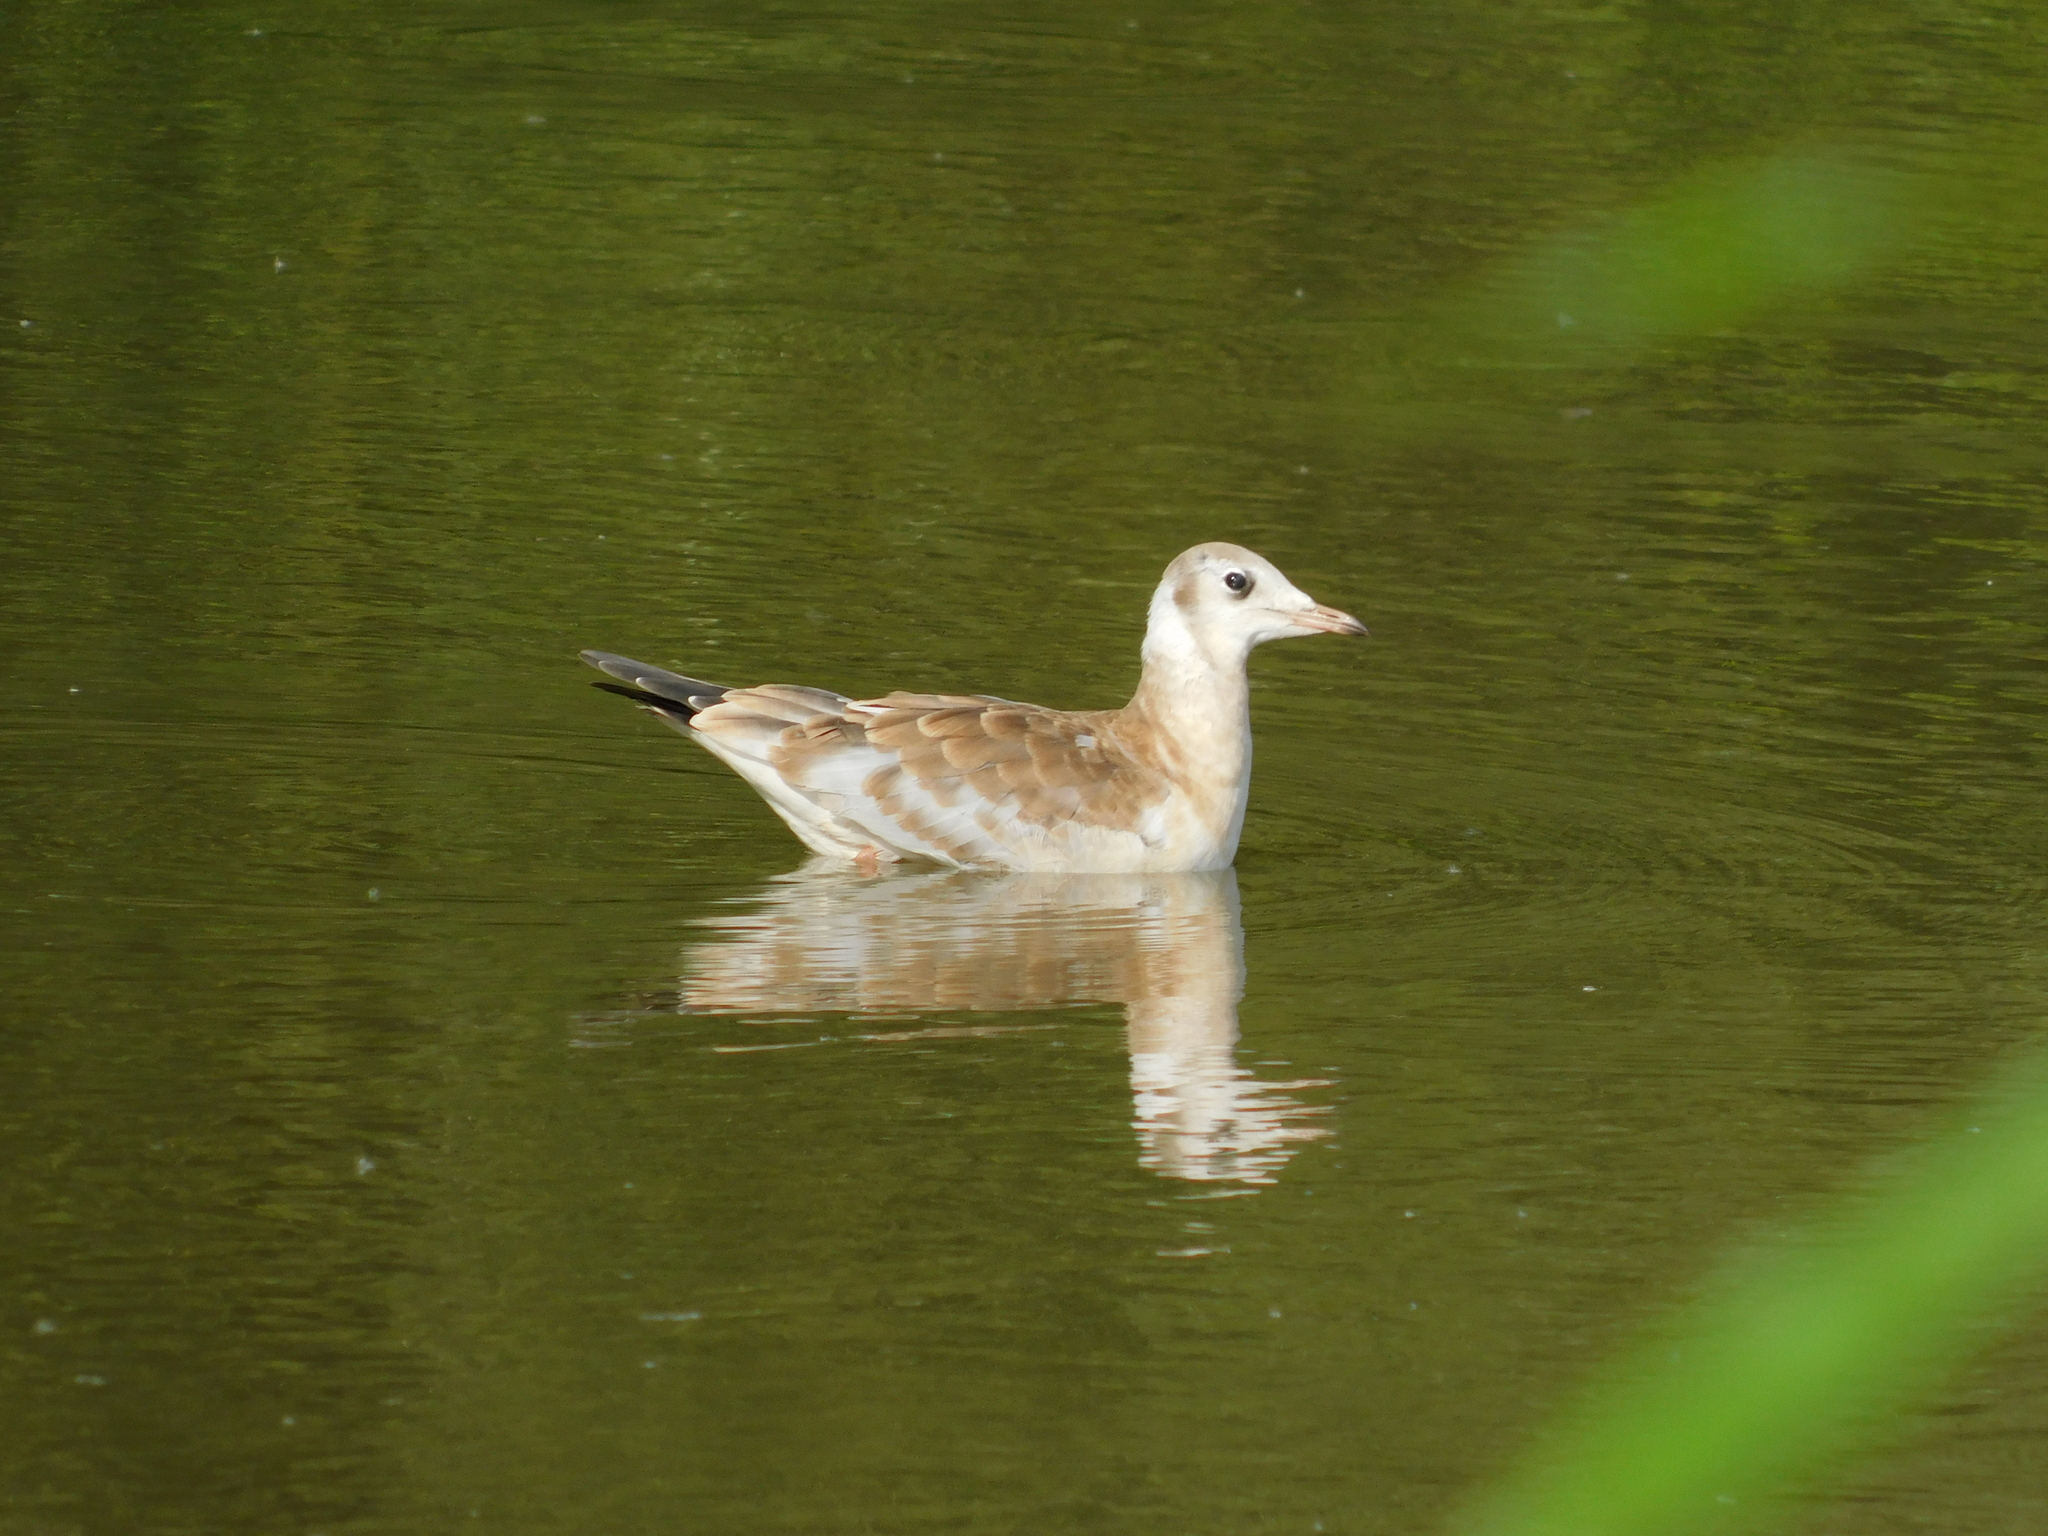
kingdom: Animalia
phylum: Chordata
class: Aves
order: Charadriiformes
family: Laridae
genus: Chroicocephalus
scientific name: Chroicocephalus ridibundus
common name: Black-headed gull
